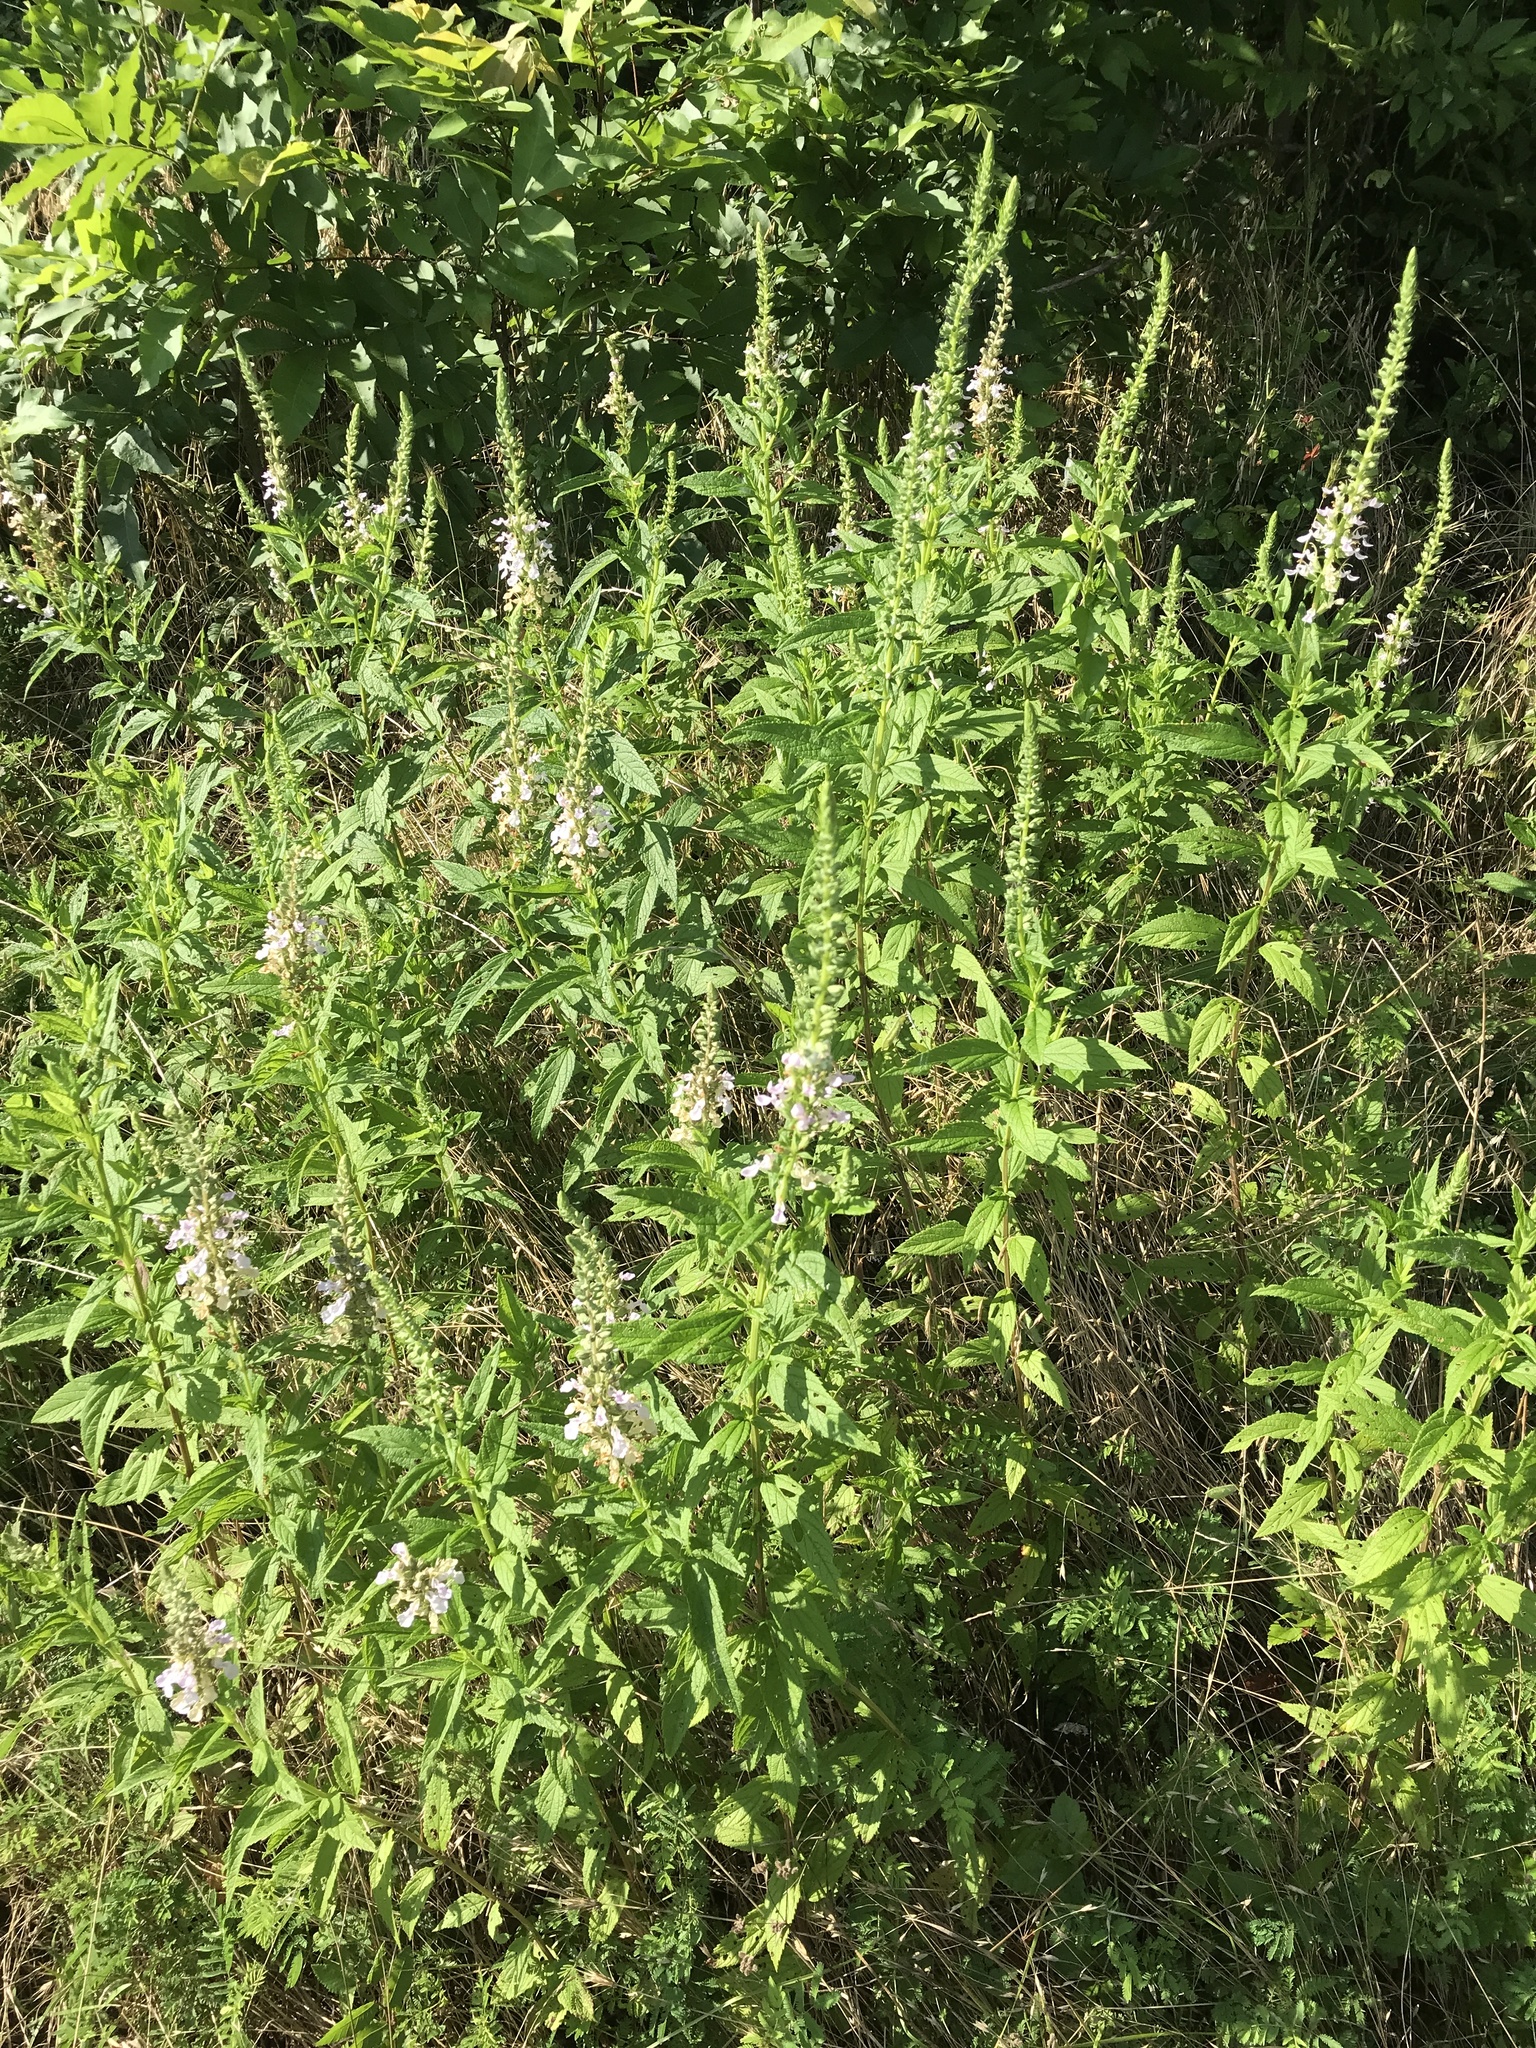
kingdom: Plantae
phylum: Tracheophyta
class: Magnoliopsida
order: Lamiales
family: Lamiaceae
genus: Teucrium
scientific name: Teucrium canadense
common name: American germander
